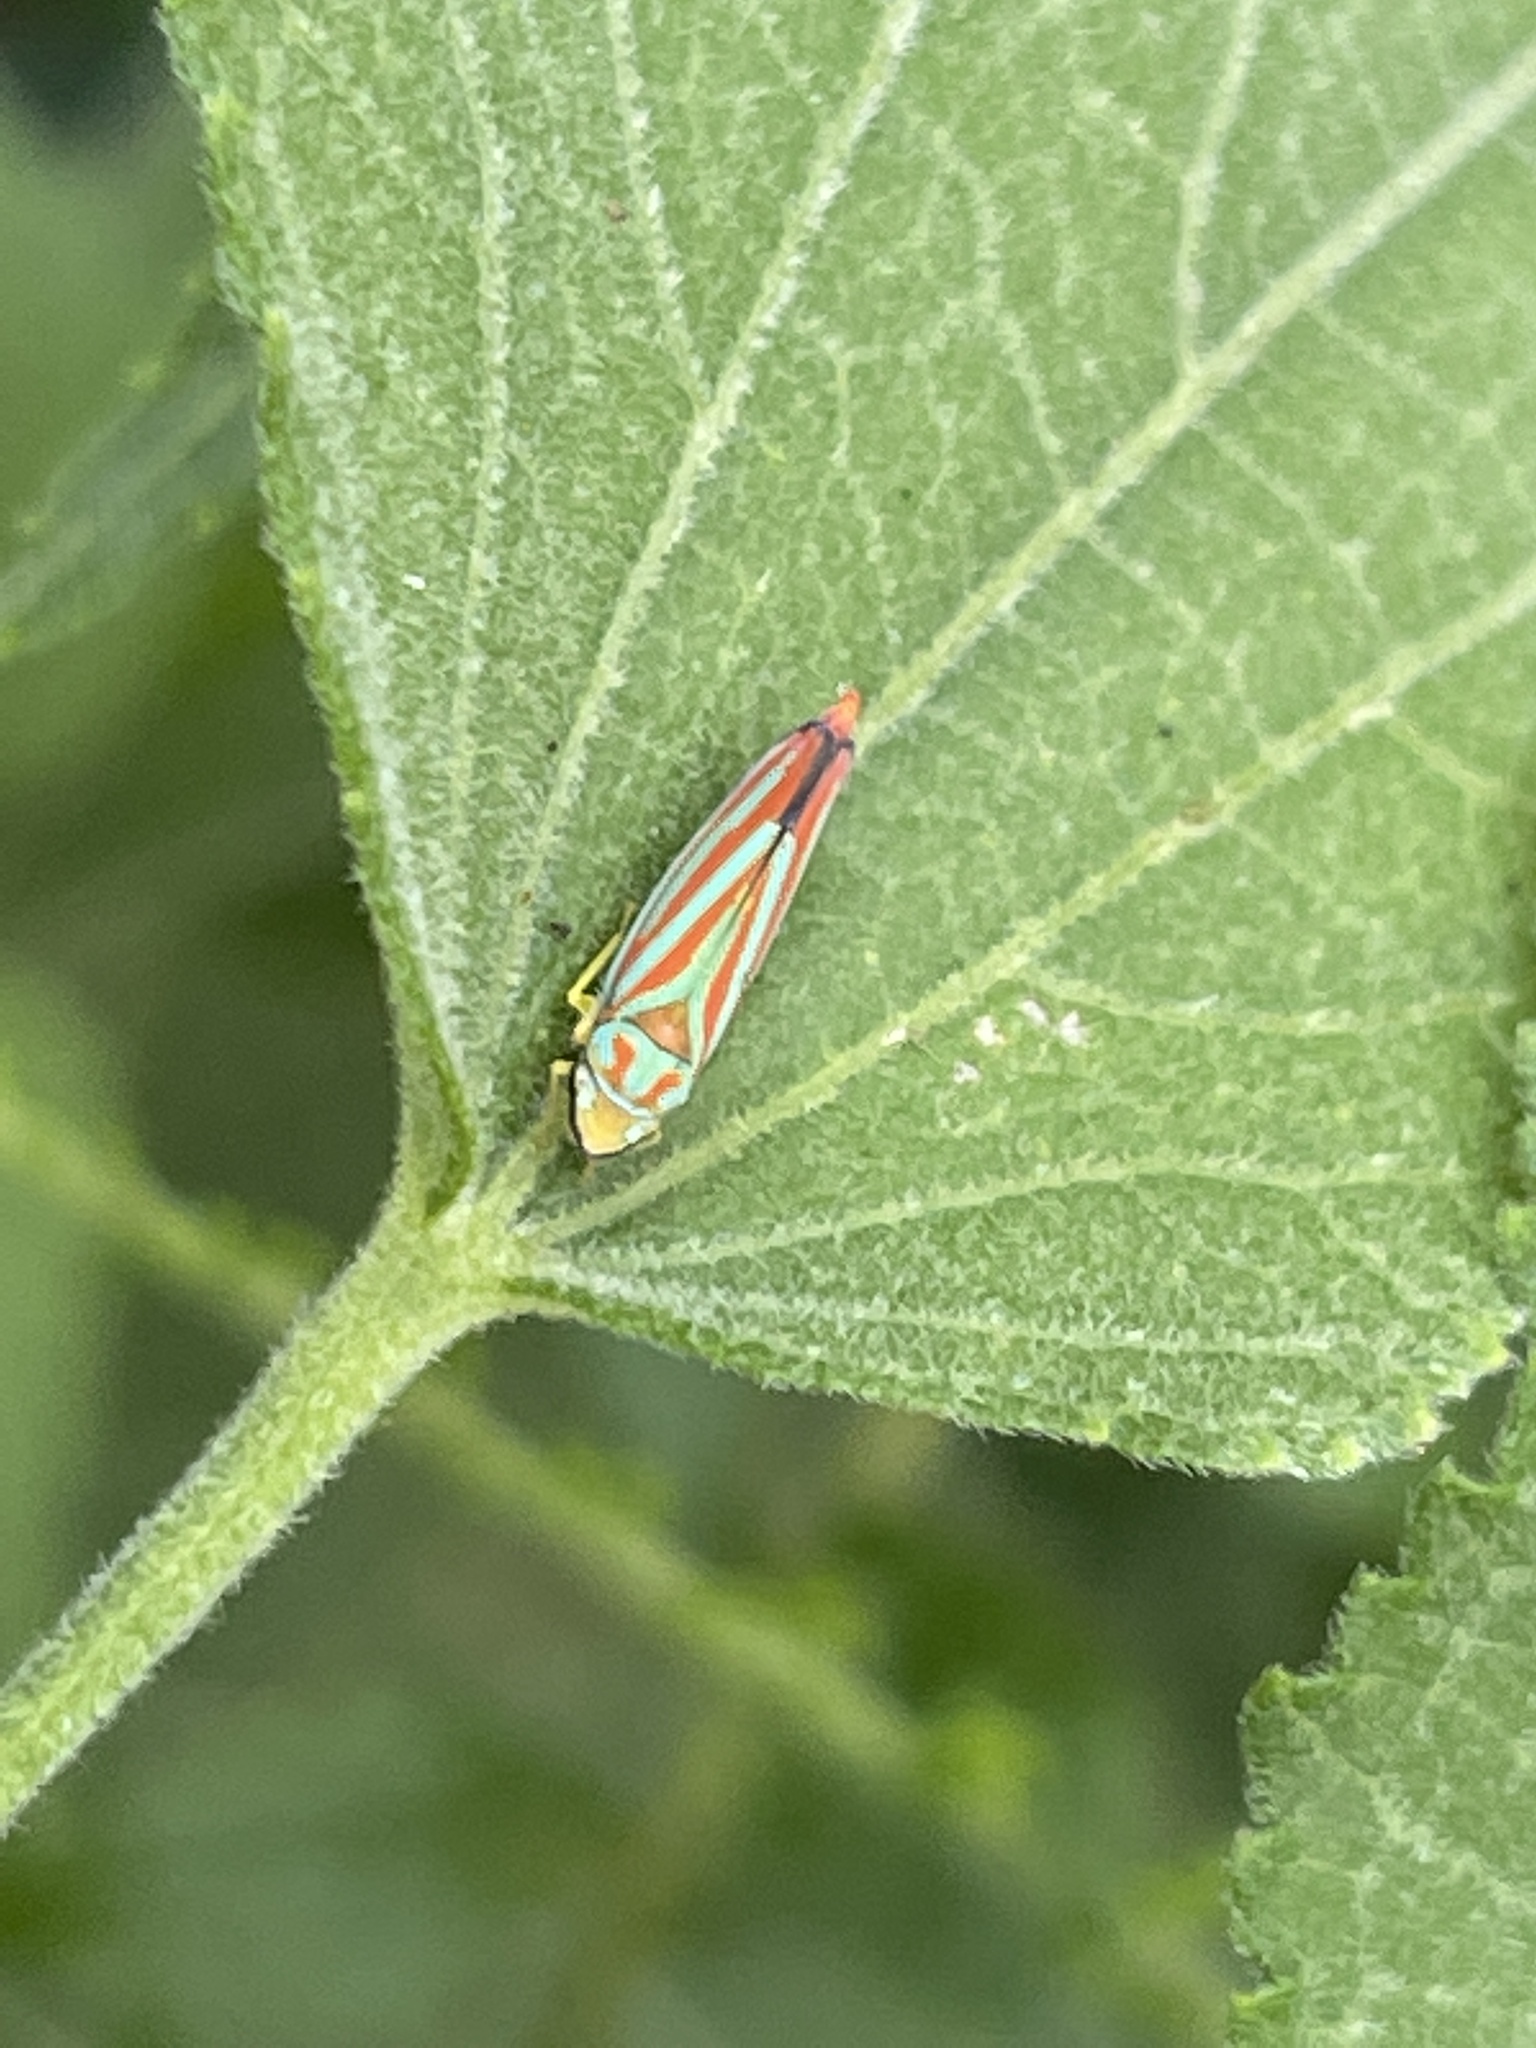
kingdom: Animalia
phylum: Arthropoda
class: Insecta
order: Hemiptera
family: Cicadellidae
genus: Graphocephala
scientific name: Graphocephala coccinea
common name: Candy-striped leafhopper
